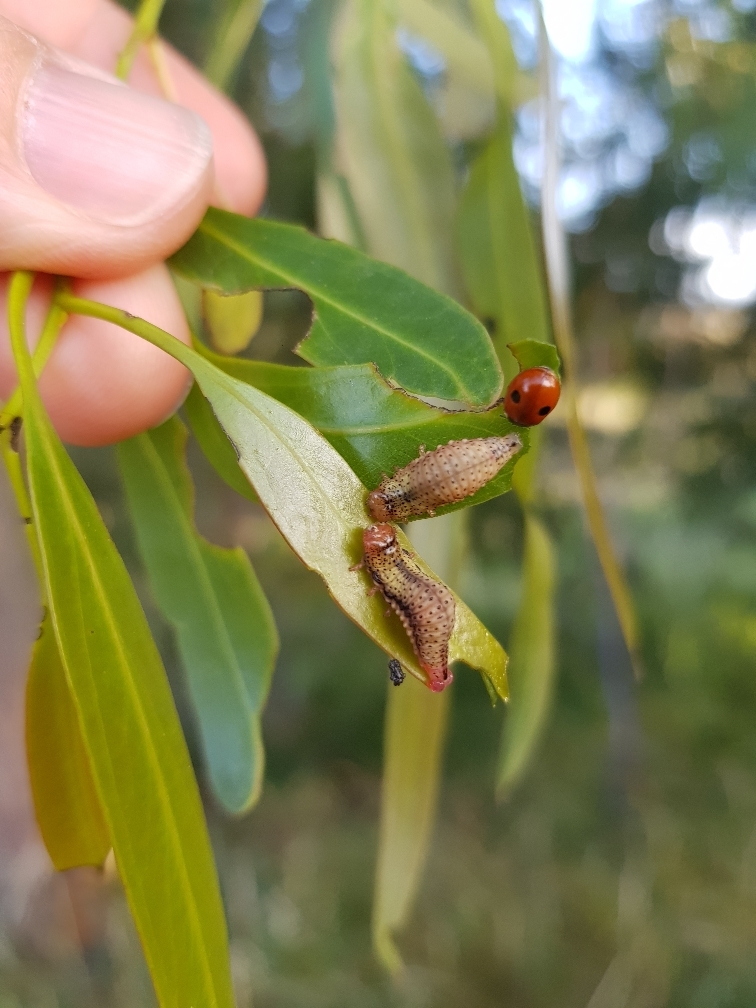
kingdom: Animalia
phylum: Arthropoda
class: Insecta
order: Coleoptera
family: Chrysomelidae
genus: Paropsis
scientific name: Paropsis charybdis
